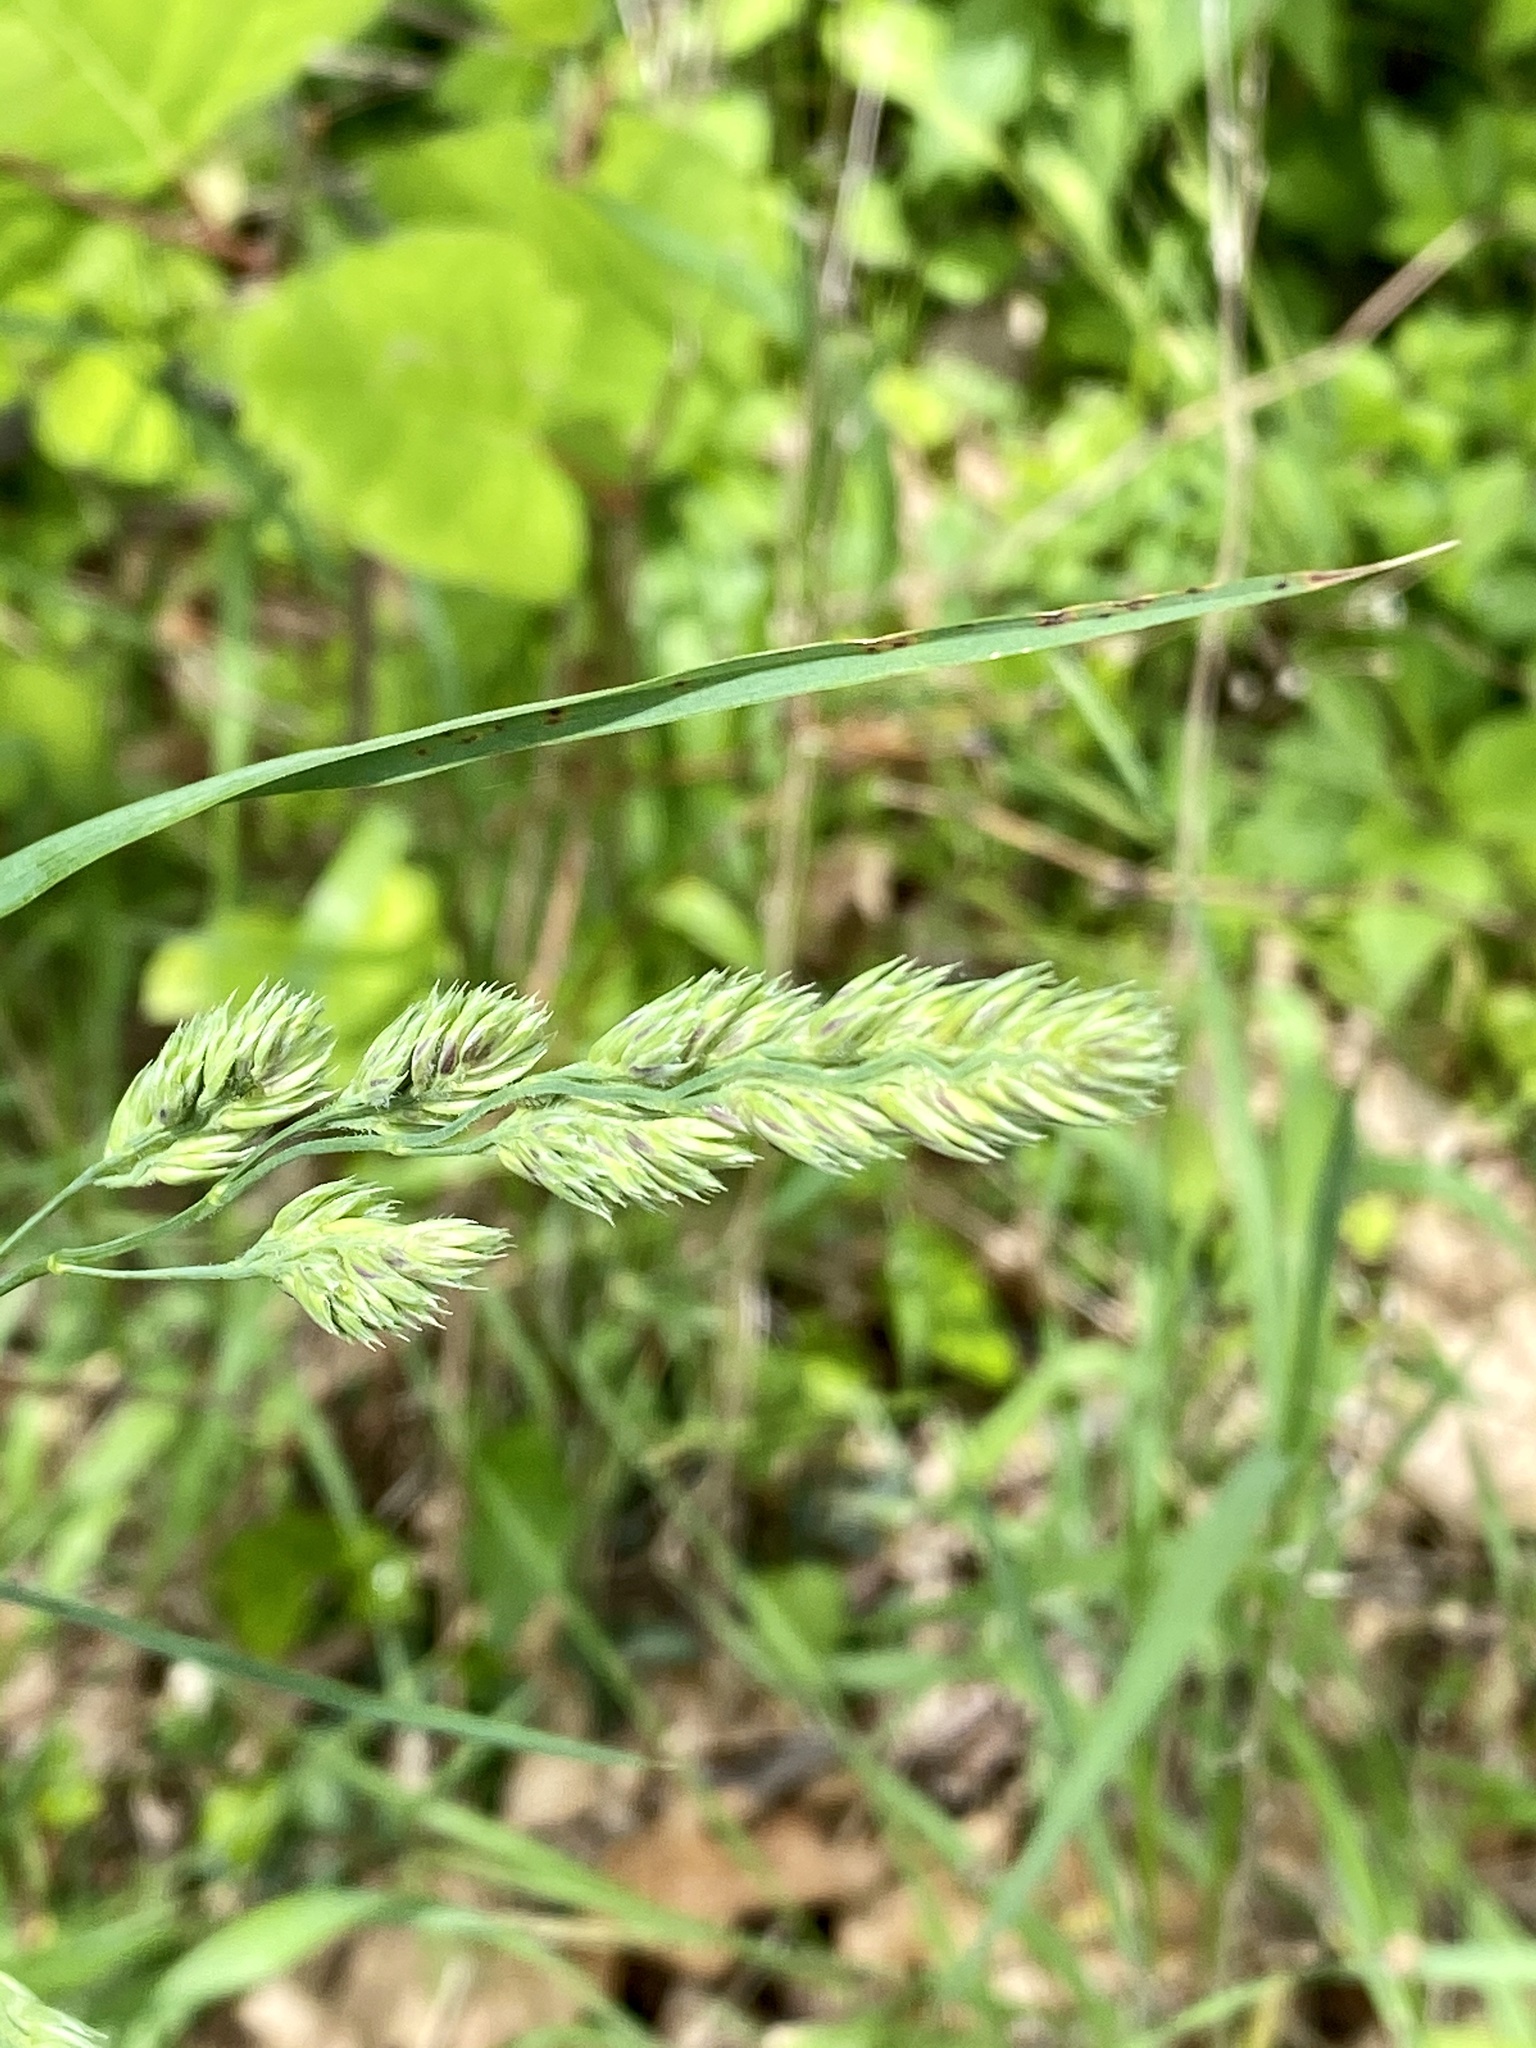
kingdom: Plantae
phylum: Tracheophyta
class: Liliopsida
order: Poales
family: Poaceae
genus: Dactylis
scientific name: Dactylis glomerata
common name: Orchardgrass
